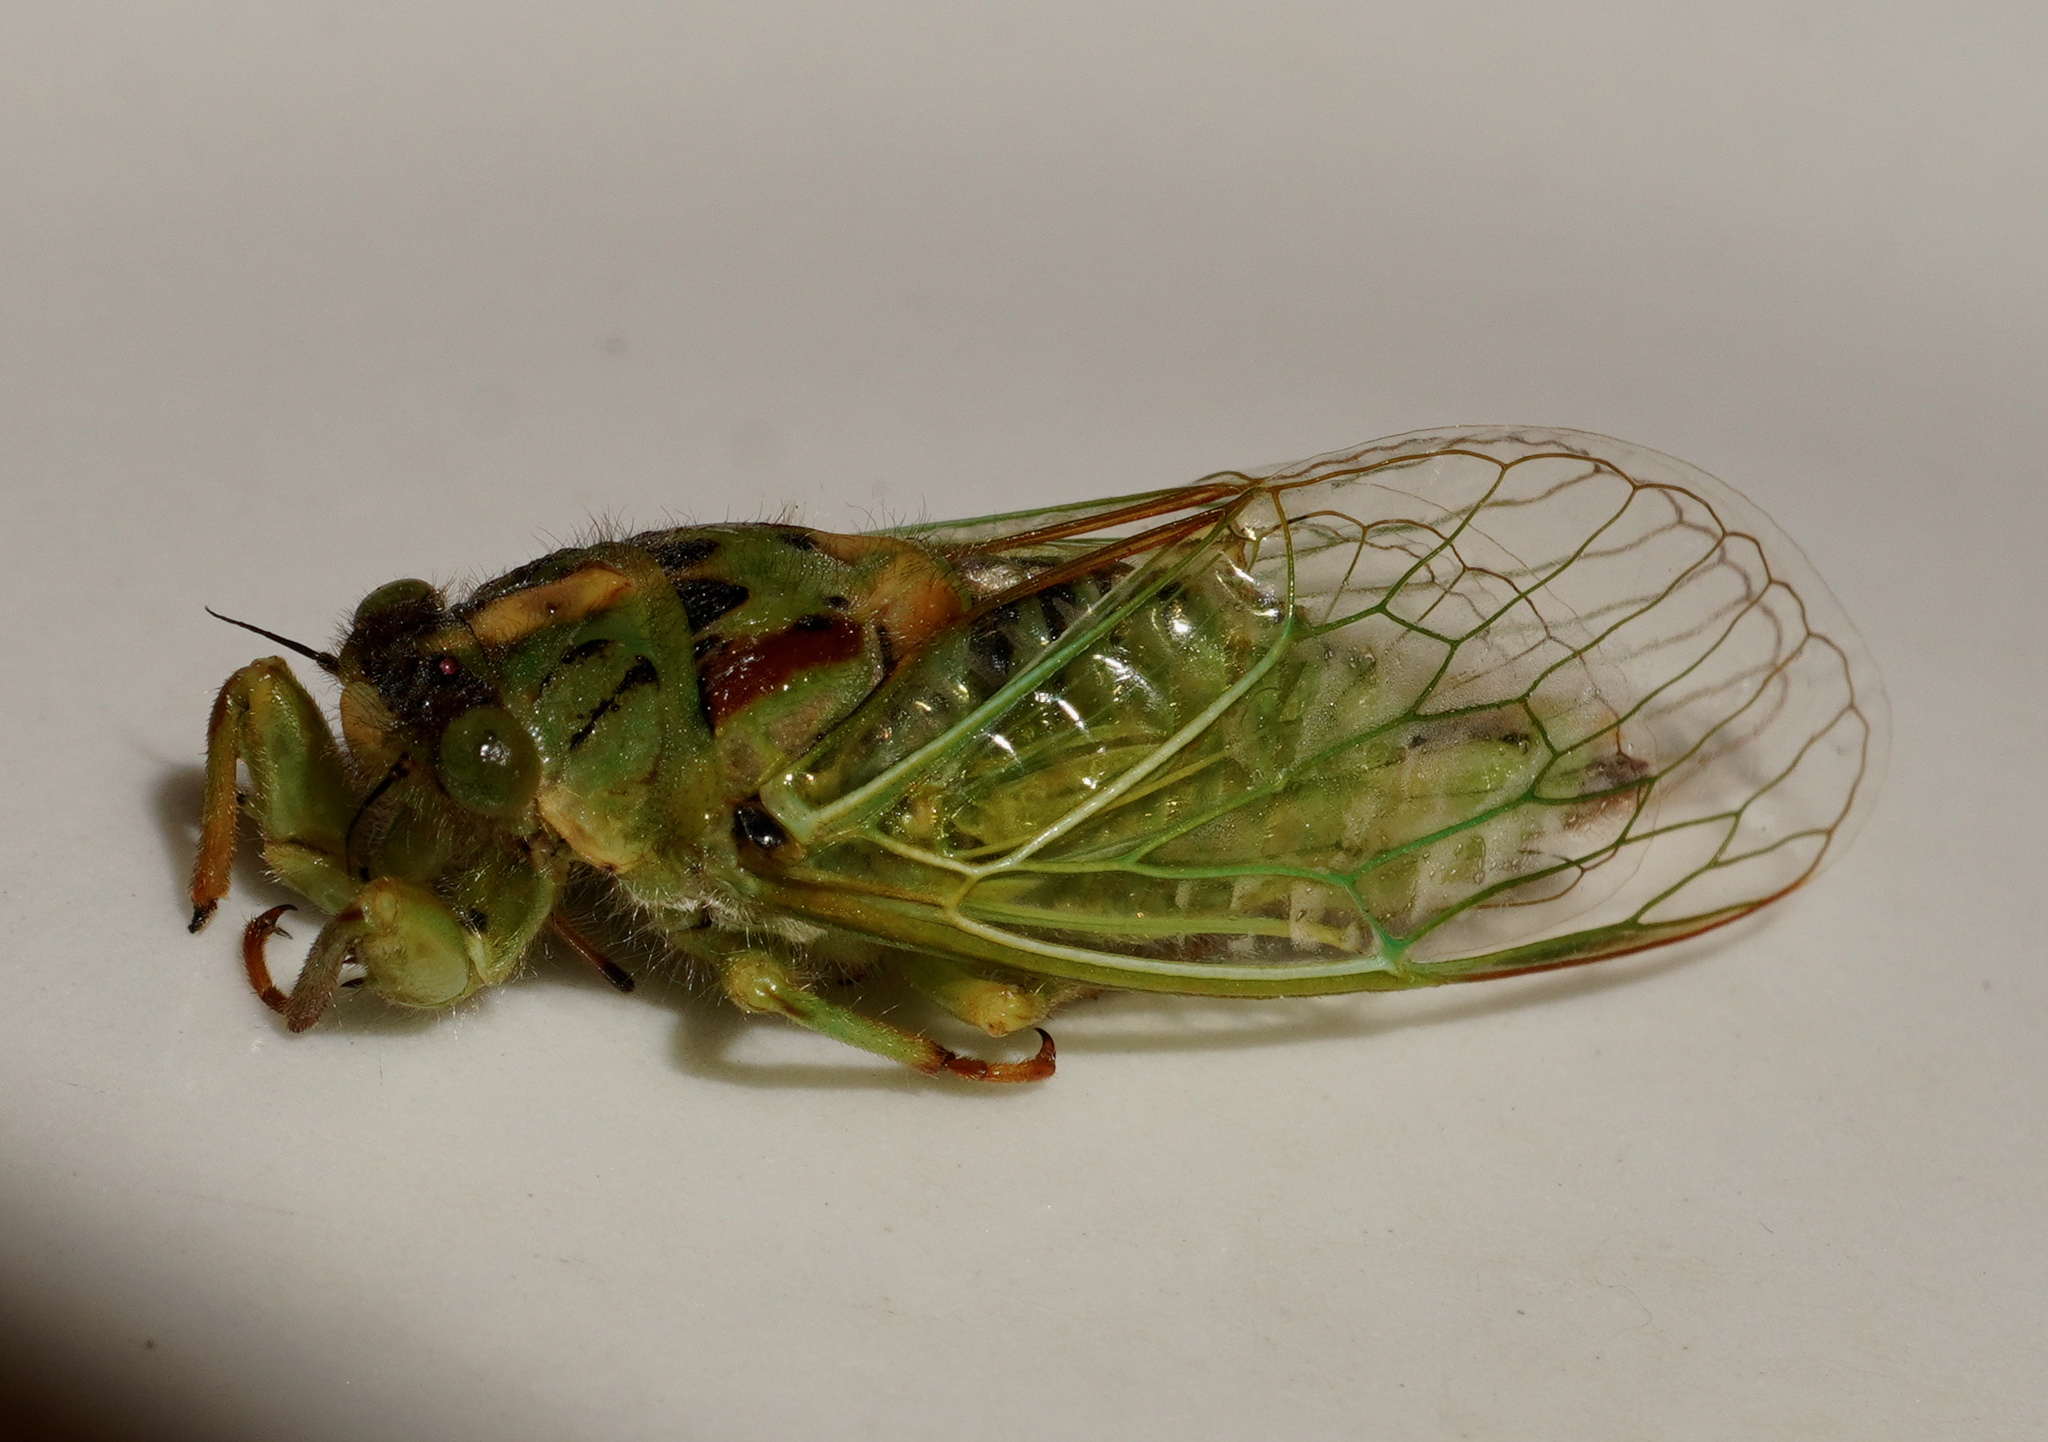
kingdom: Animalia
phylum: Arthropoda
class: Insecta
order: Hemiptera
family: Cicadidae
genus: Kikihia
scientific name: Kikihia horologium
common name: Clock cicada
